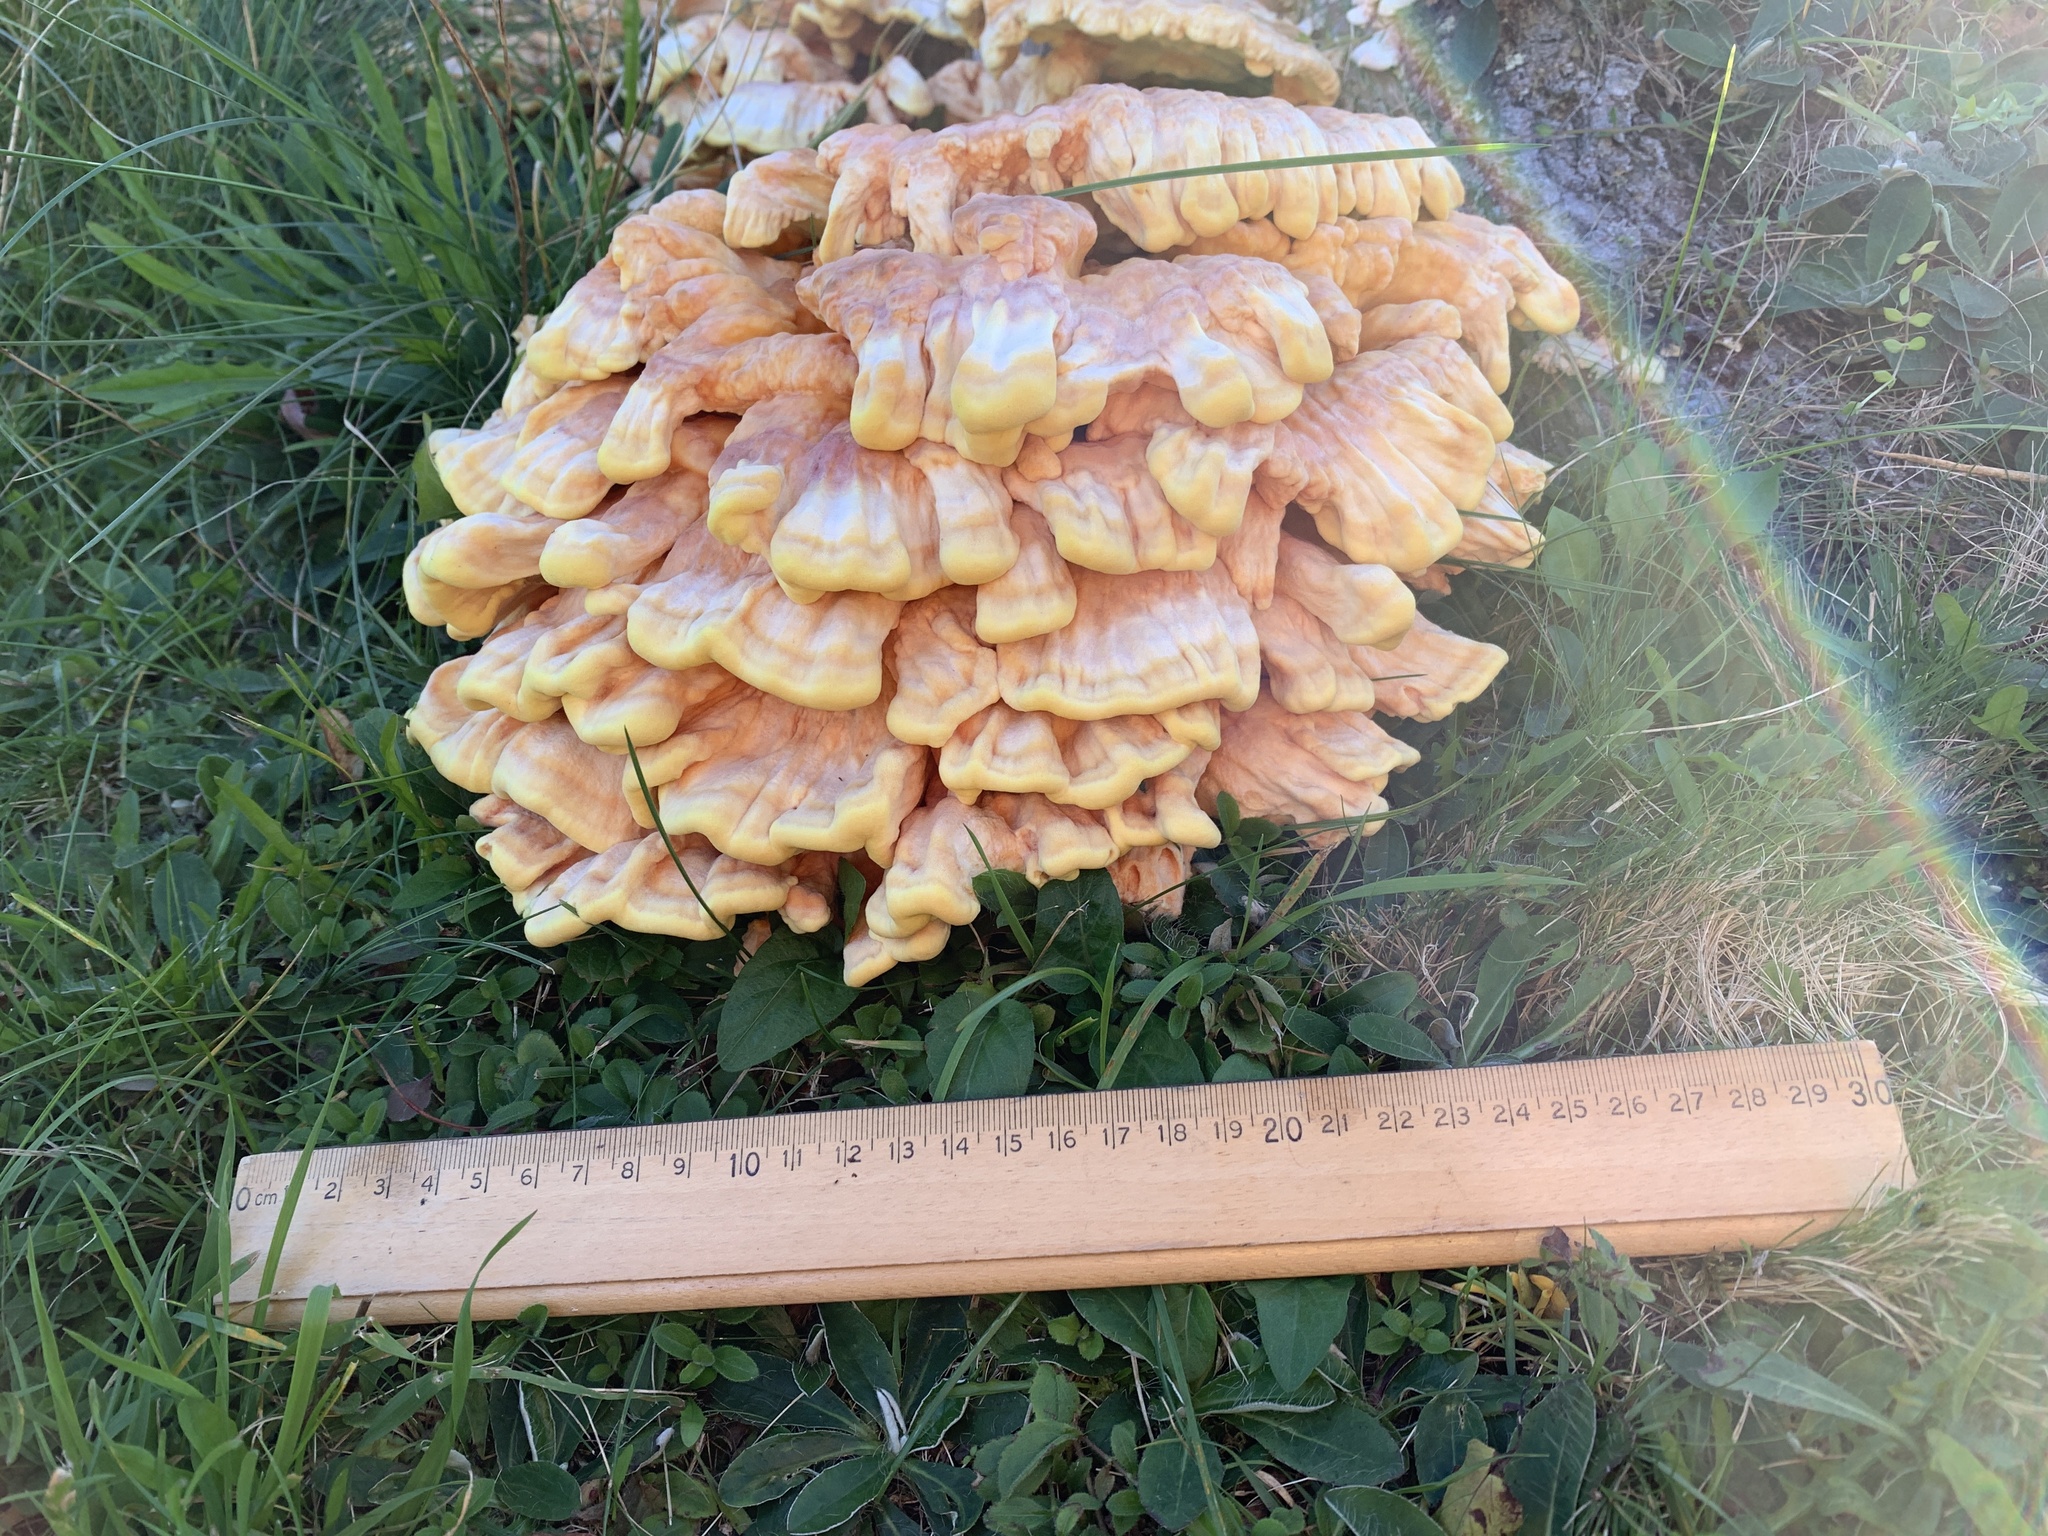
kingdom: Fungi
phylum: Basidiomycota
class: Agaricomycetes
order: Polyporales
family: Laetiporaceae
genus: Laetiporus
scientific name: Laetiporus sulphureus
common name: Chicken of the woods
